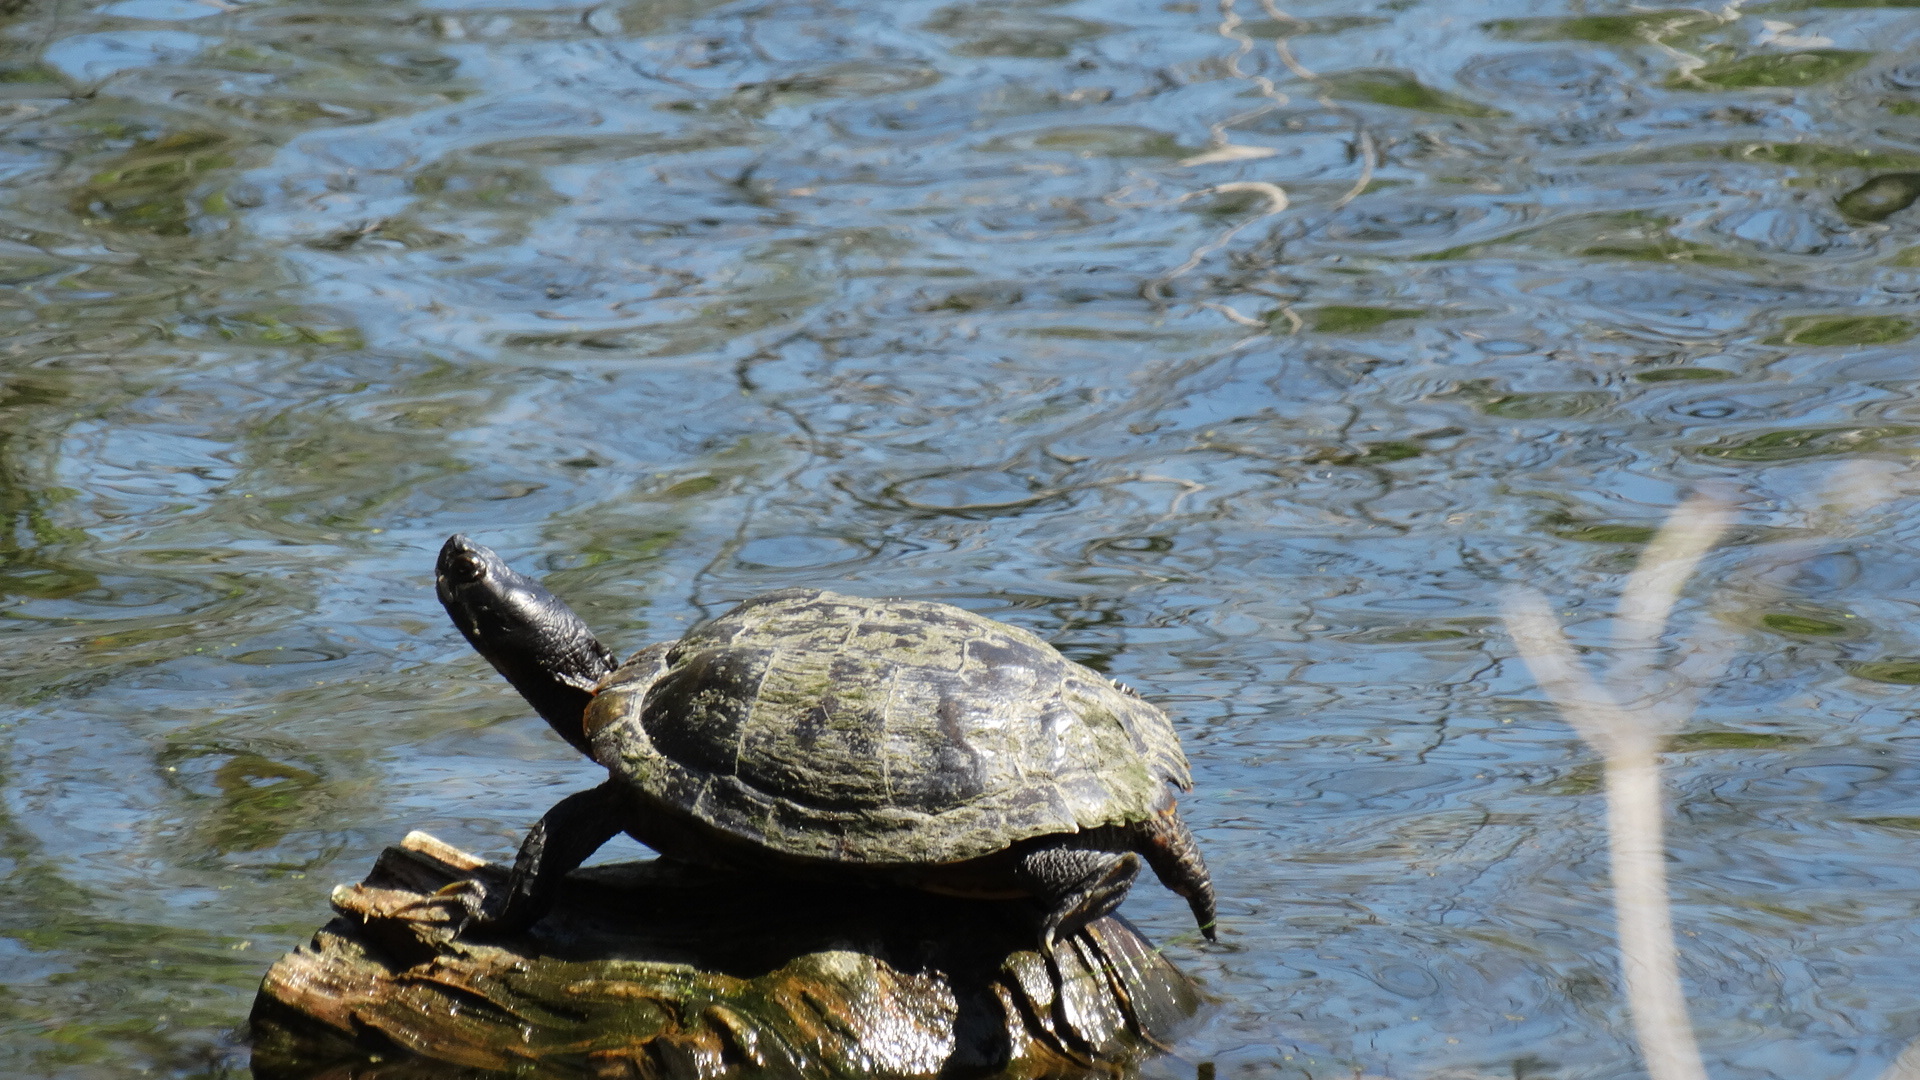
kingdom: Animalia
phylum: Chordata
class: Testudines
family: Emydidae
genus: Trachemys
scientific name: Trachemys scripta
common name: Slider
